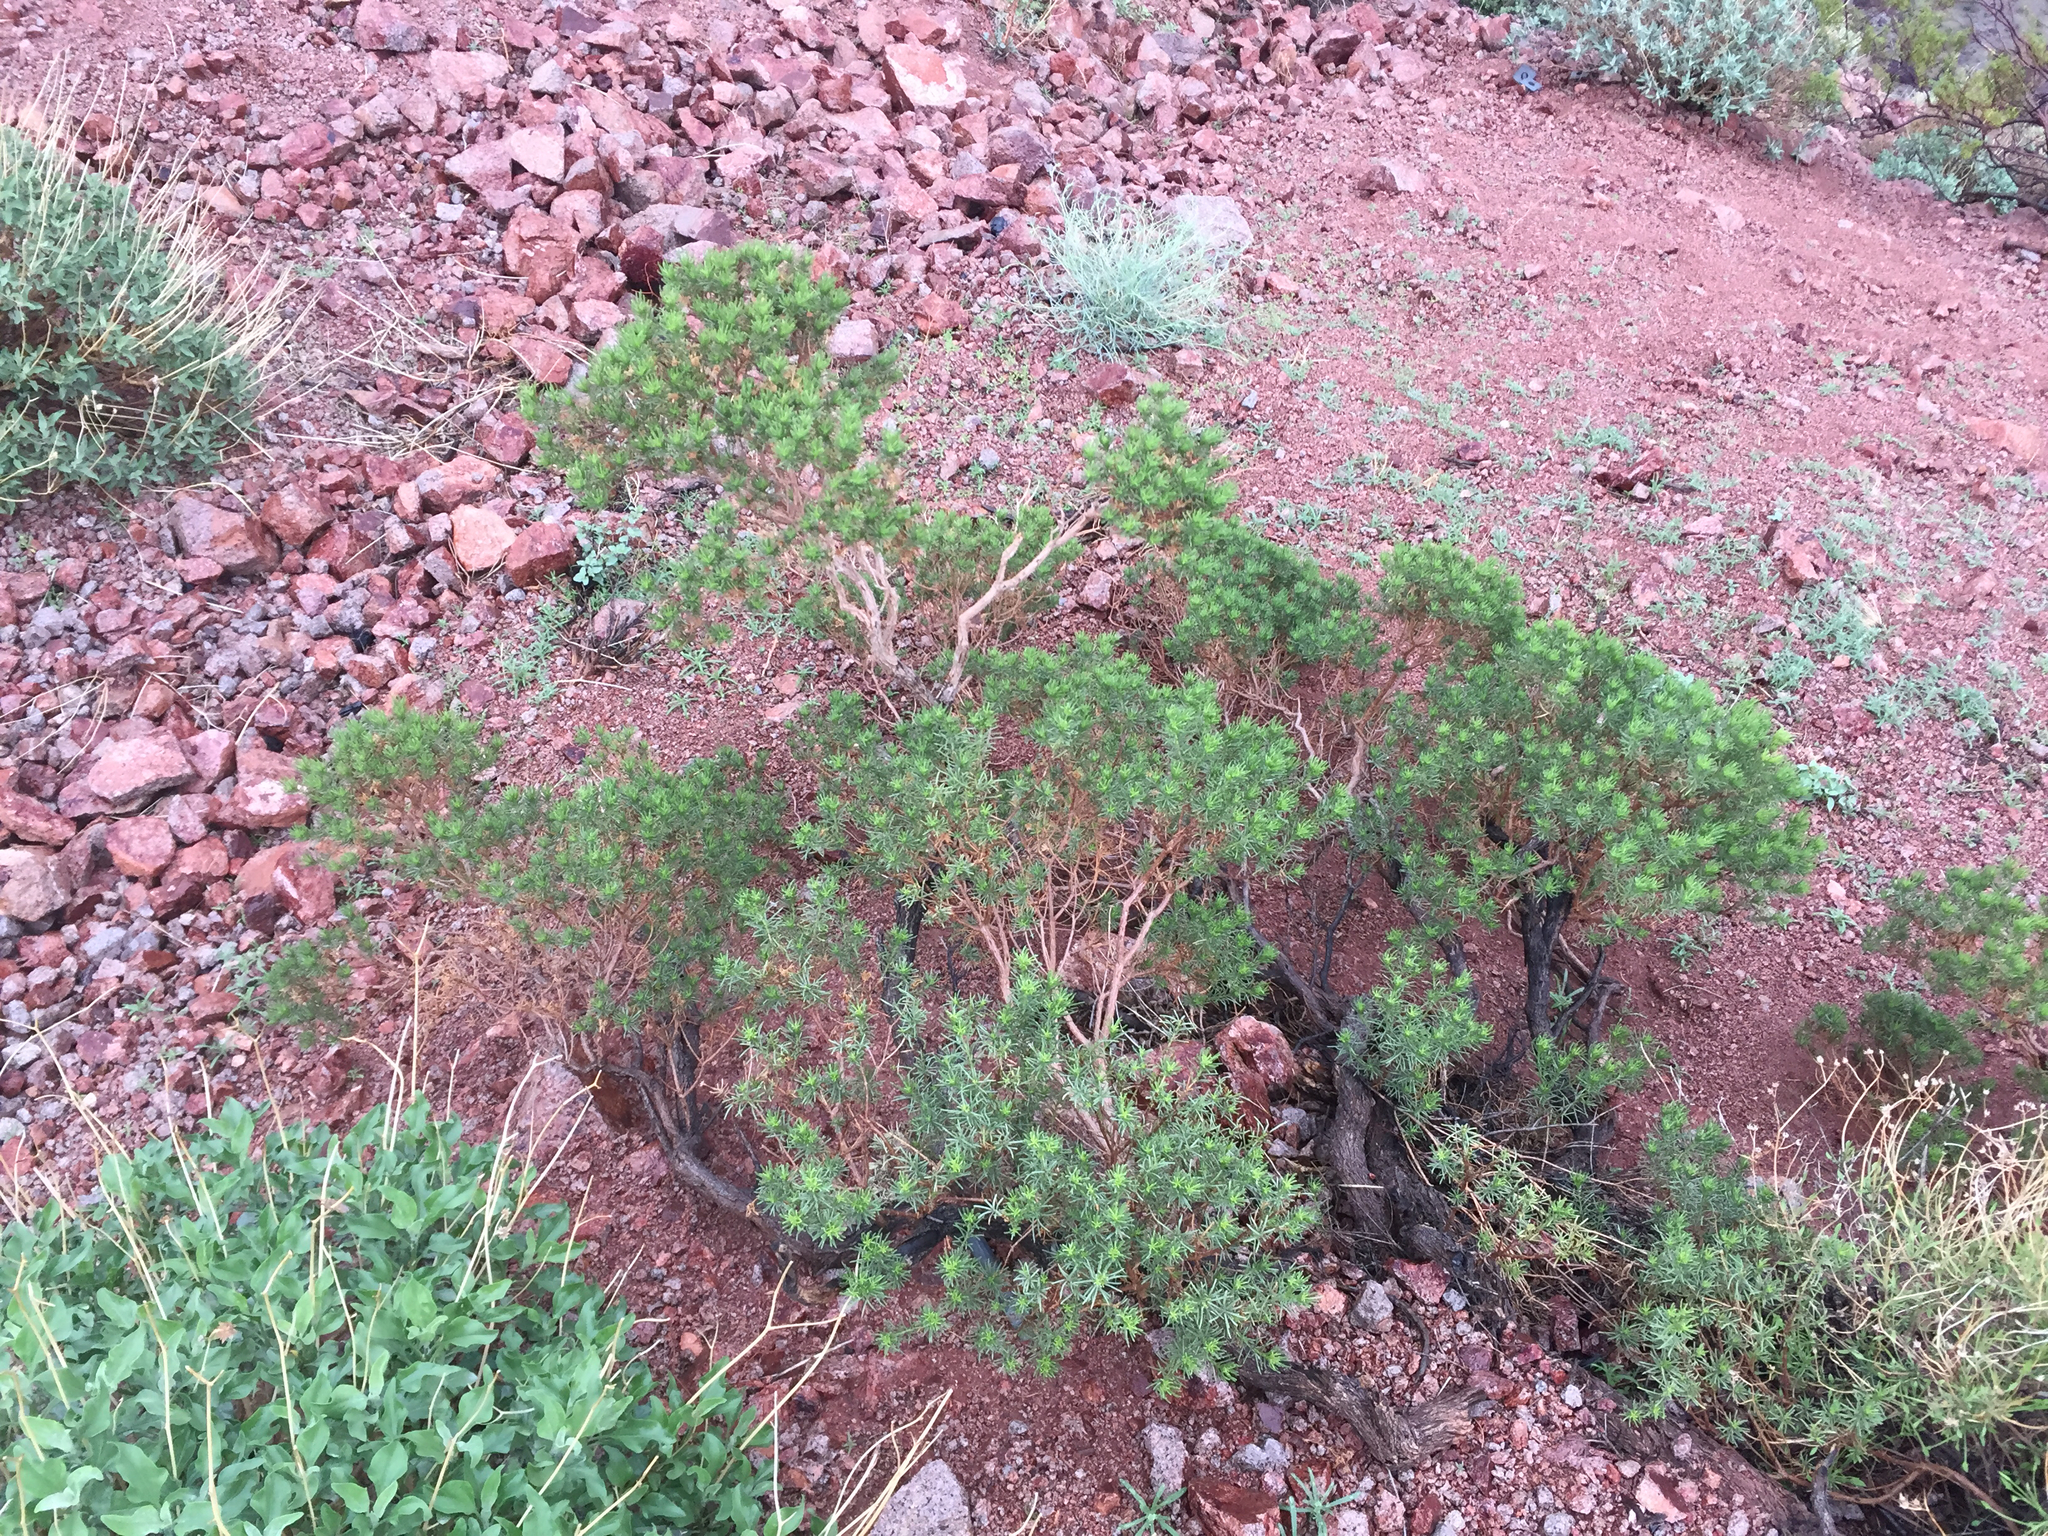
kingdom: Plantae
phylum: Tracheophyta
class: Magnoliopsida
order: Asterales
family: Asteraceae
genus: Peucephyllum
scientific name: Peucephyllum schottii
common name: Pygmy-cedar
